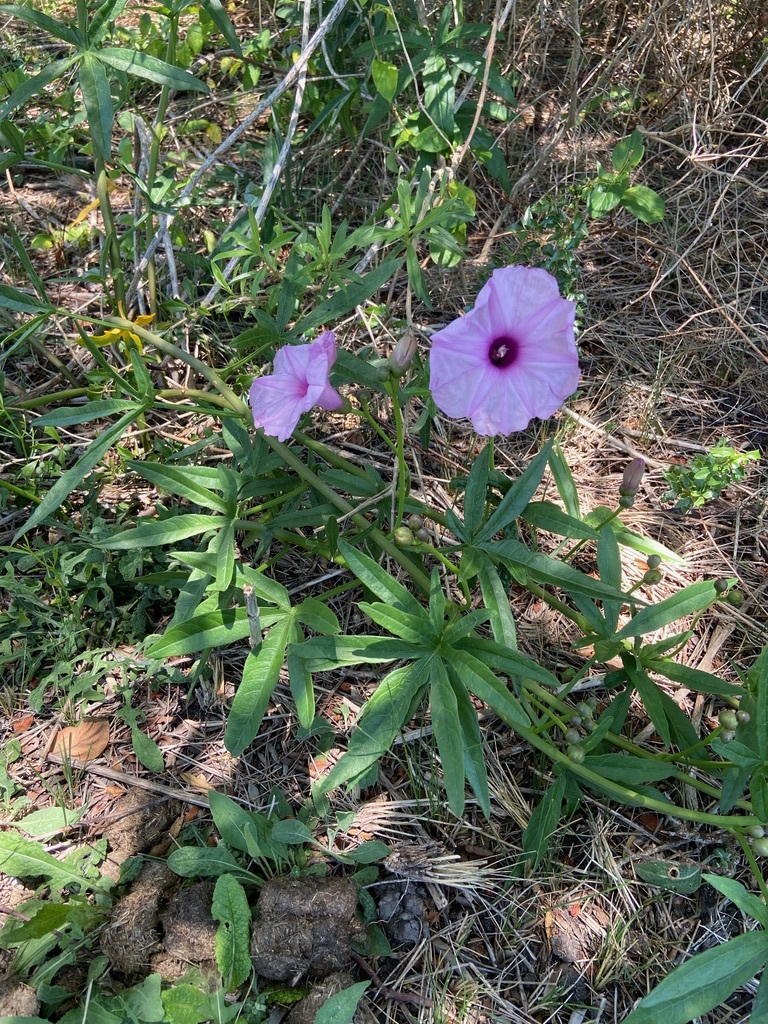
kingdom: Plantae
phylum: Tracheophyta
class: Magnoliopsida
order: Solanales
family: Convolvulaceae
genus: Ipomoea
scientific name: Ipomoea platensis
